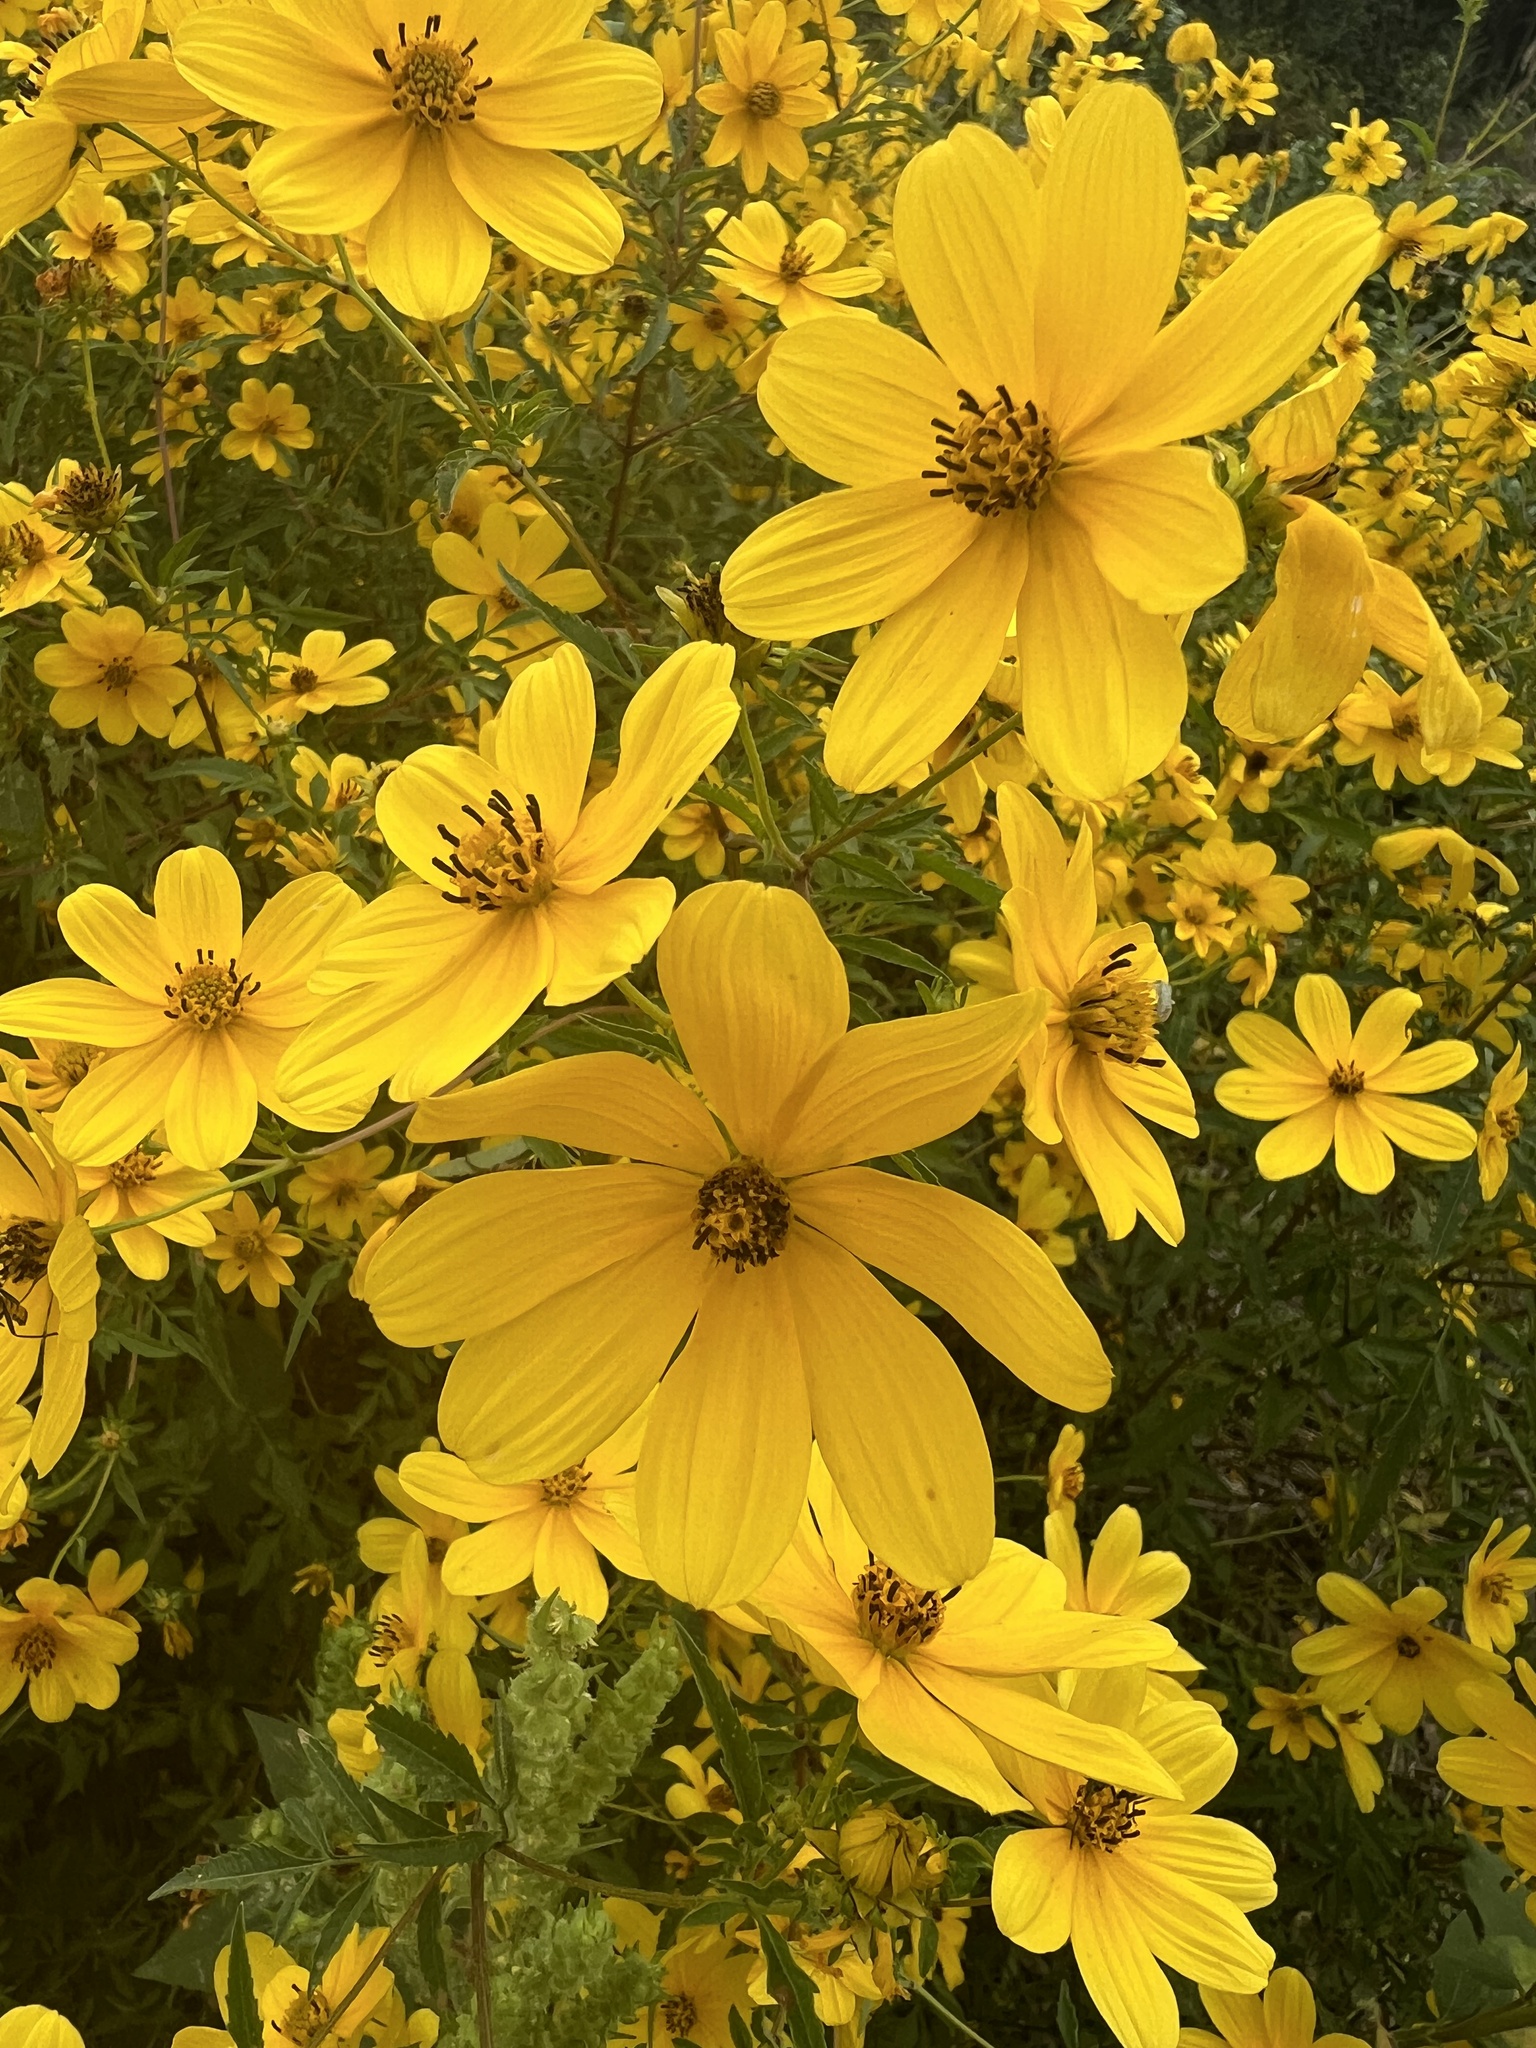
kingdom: Plantae
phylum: Tracheophyta
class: Magnoliopsida
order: Asterales
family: Asteraceae
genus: Bidens
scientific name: Bidens aristosa
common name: Western tickseed
